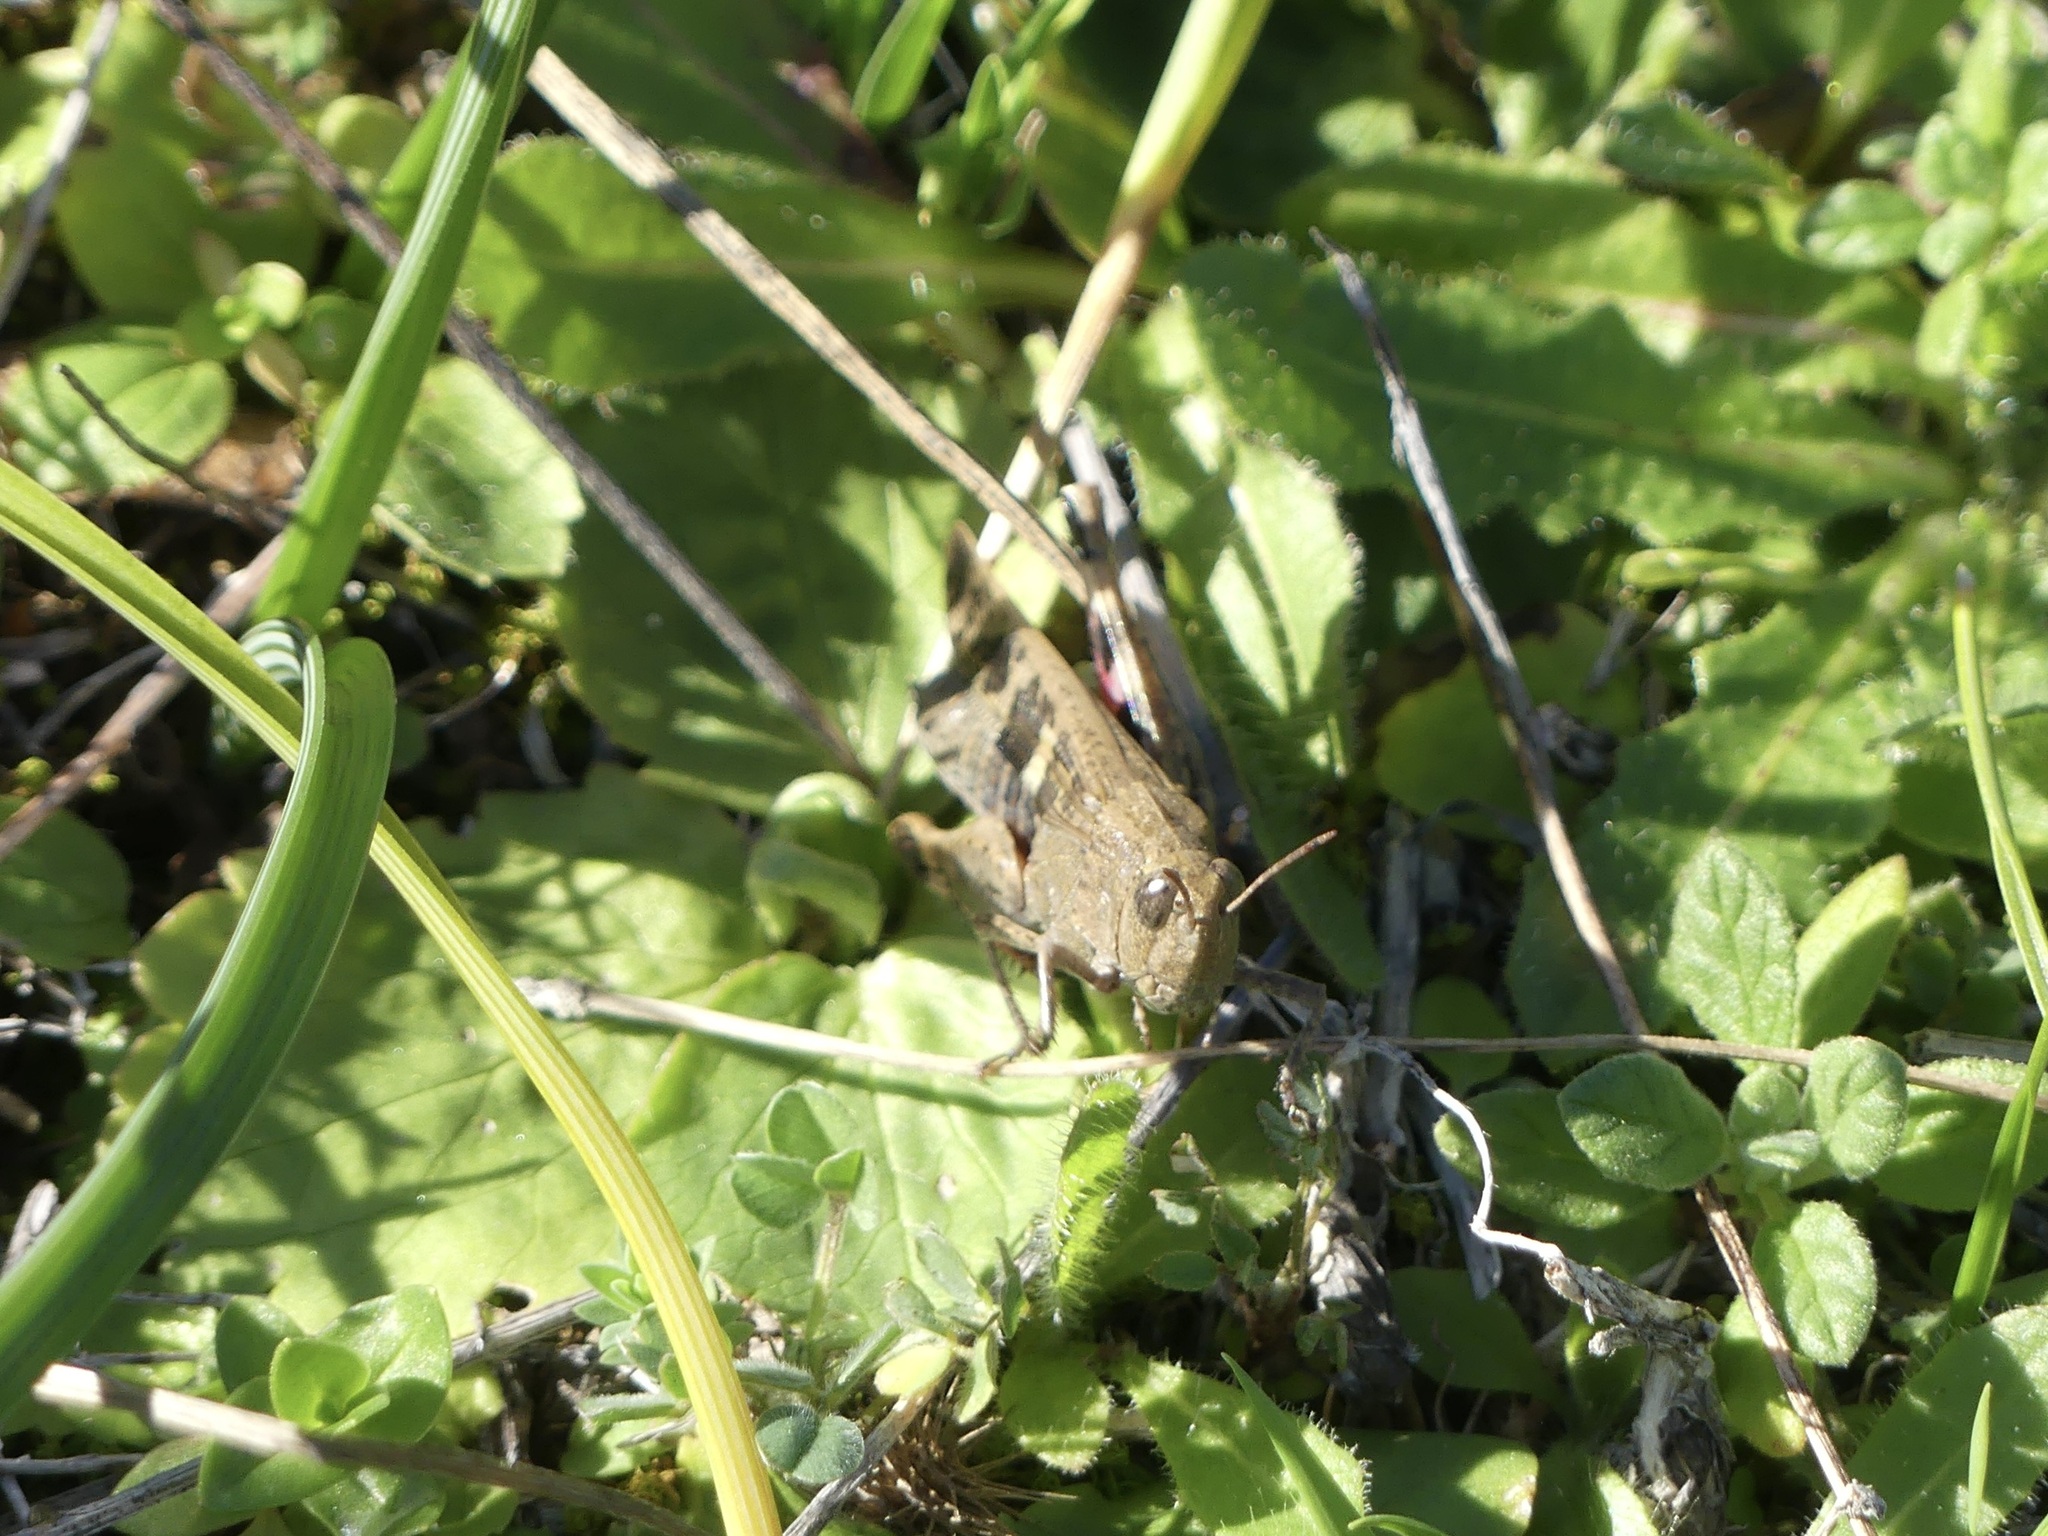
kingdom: Animalia
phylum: Arthropoda
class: Insecta
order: Orthoptera
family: Acrididae
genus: Aiolopus
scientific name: Aiolopus strepens
